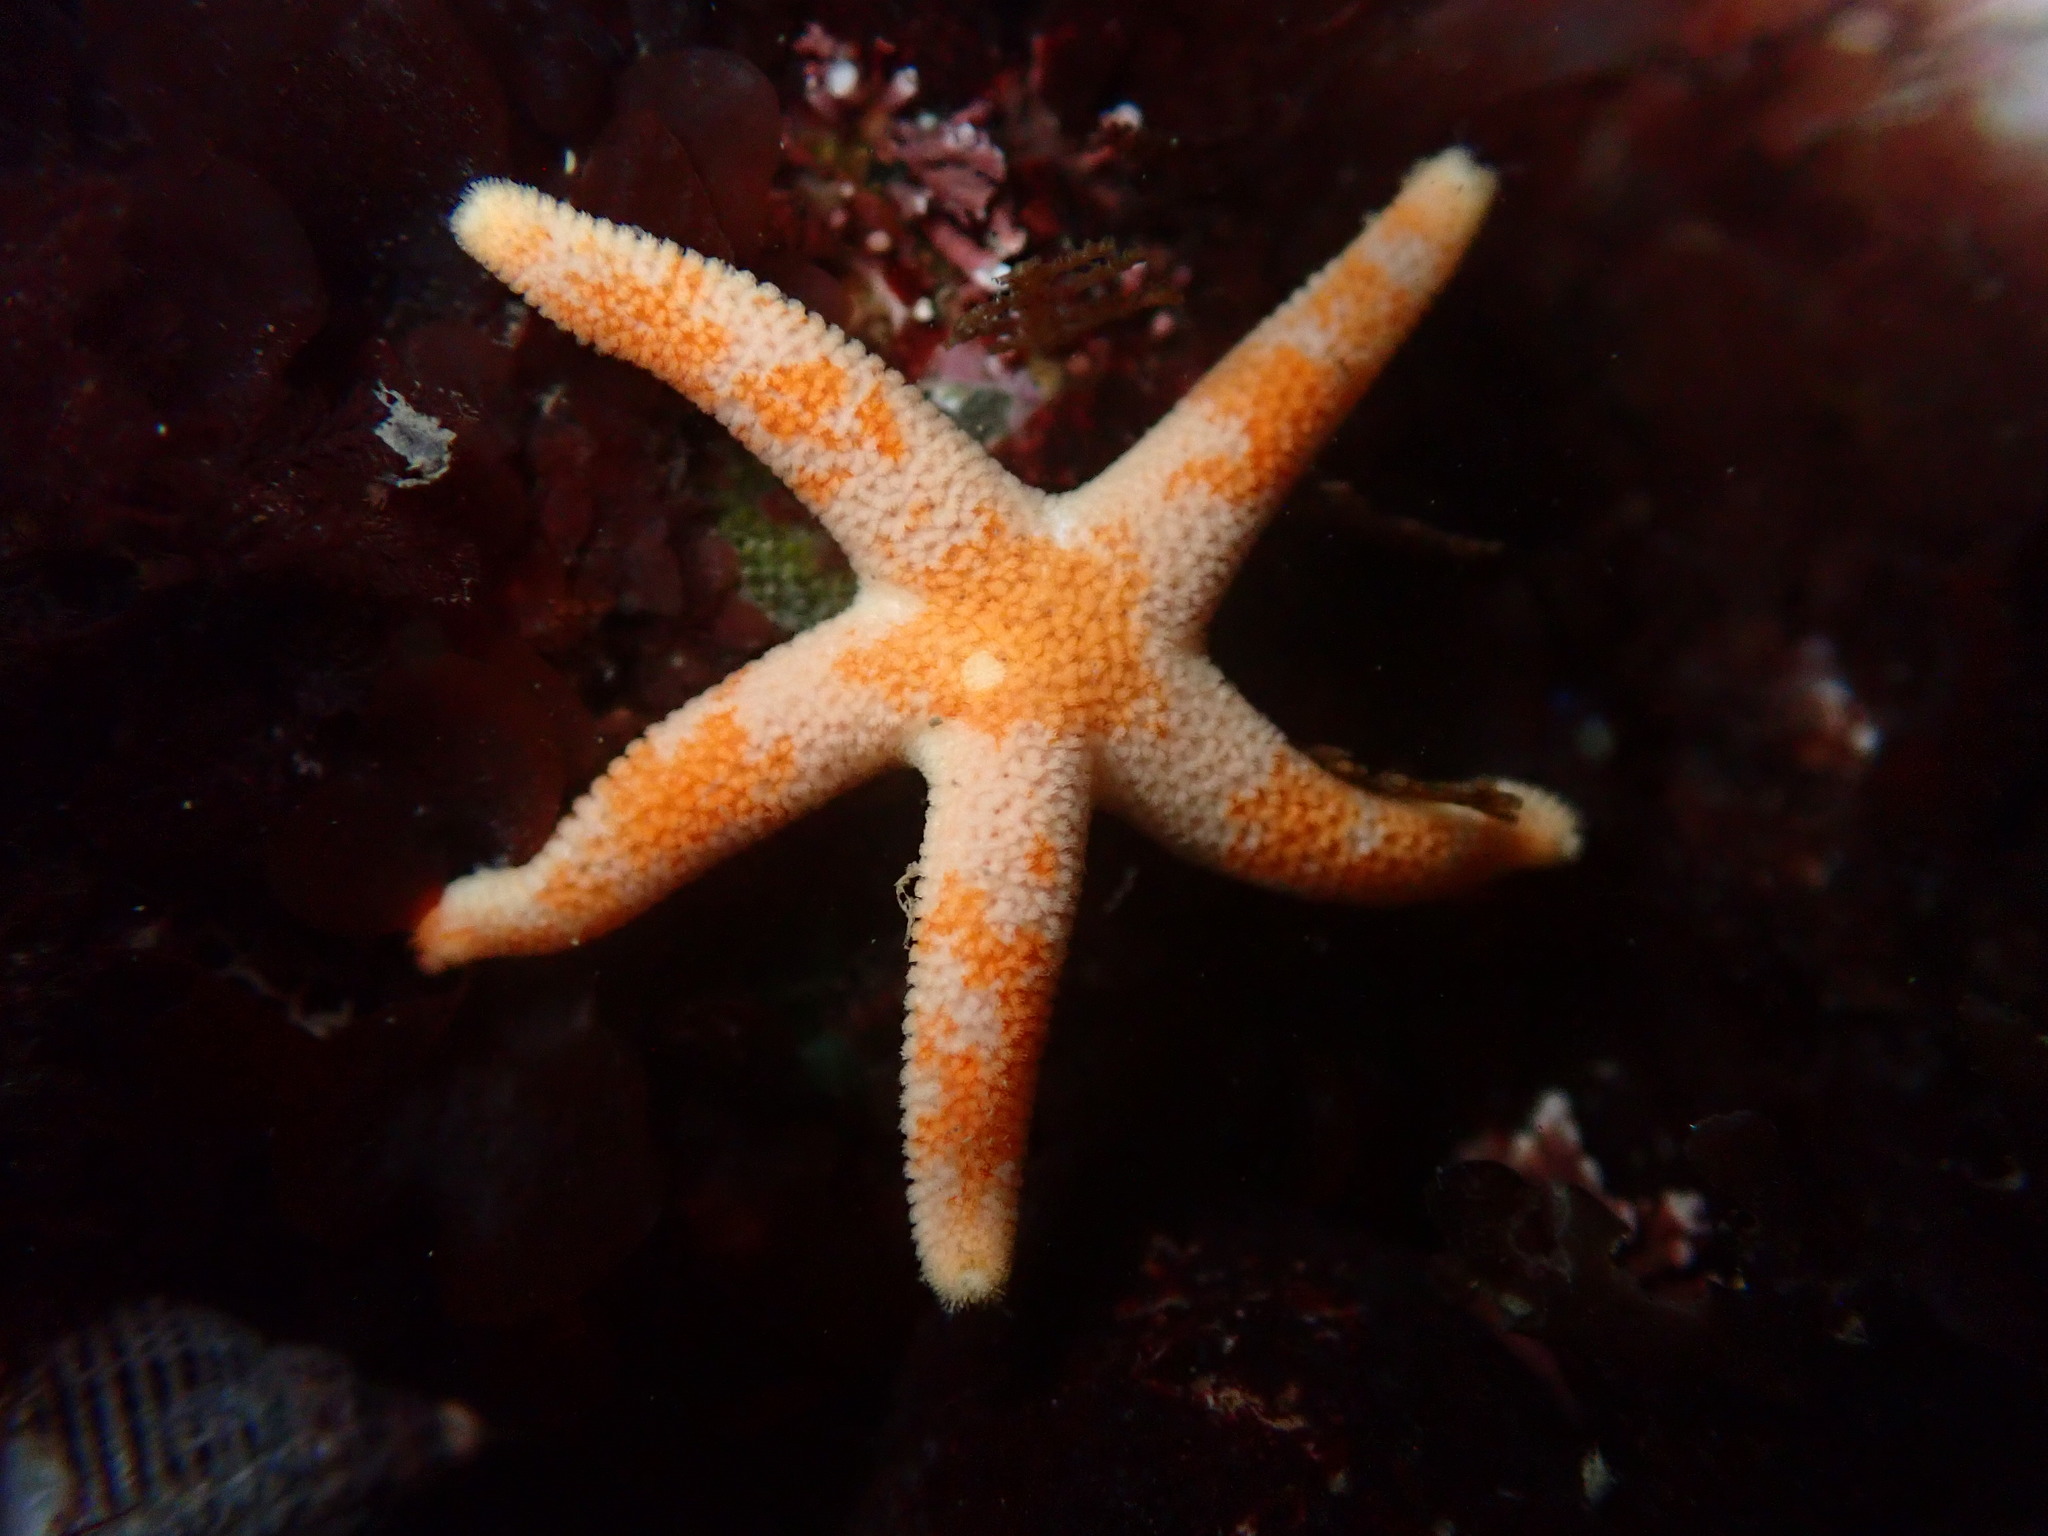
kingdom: Animalia
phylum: Echinodermata
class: Asteroidea
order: Spinulosida
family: Echinasteridae
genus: Henricia
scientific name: Henricia pumila
